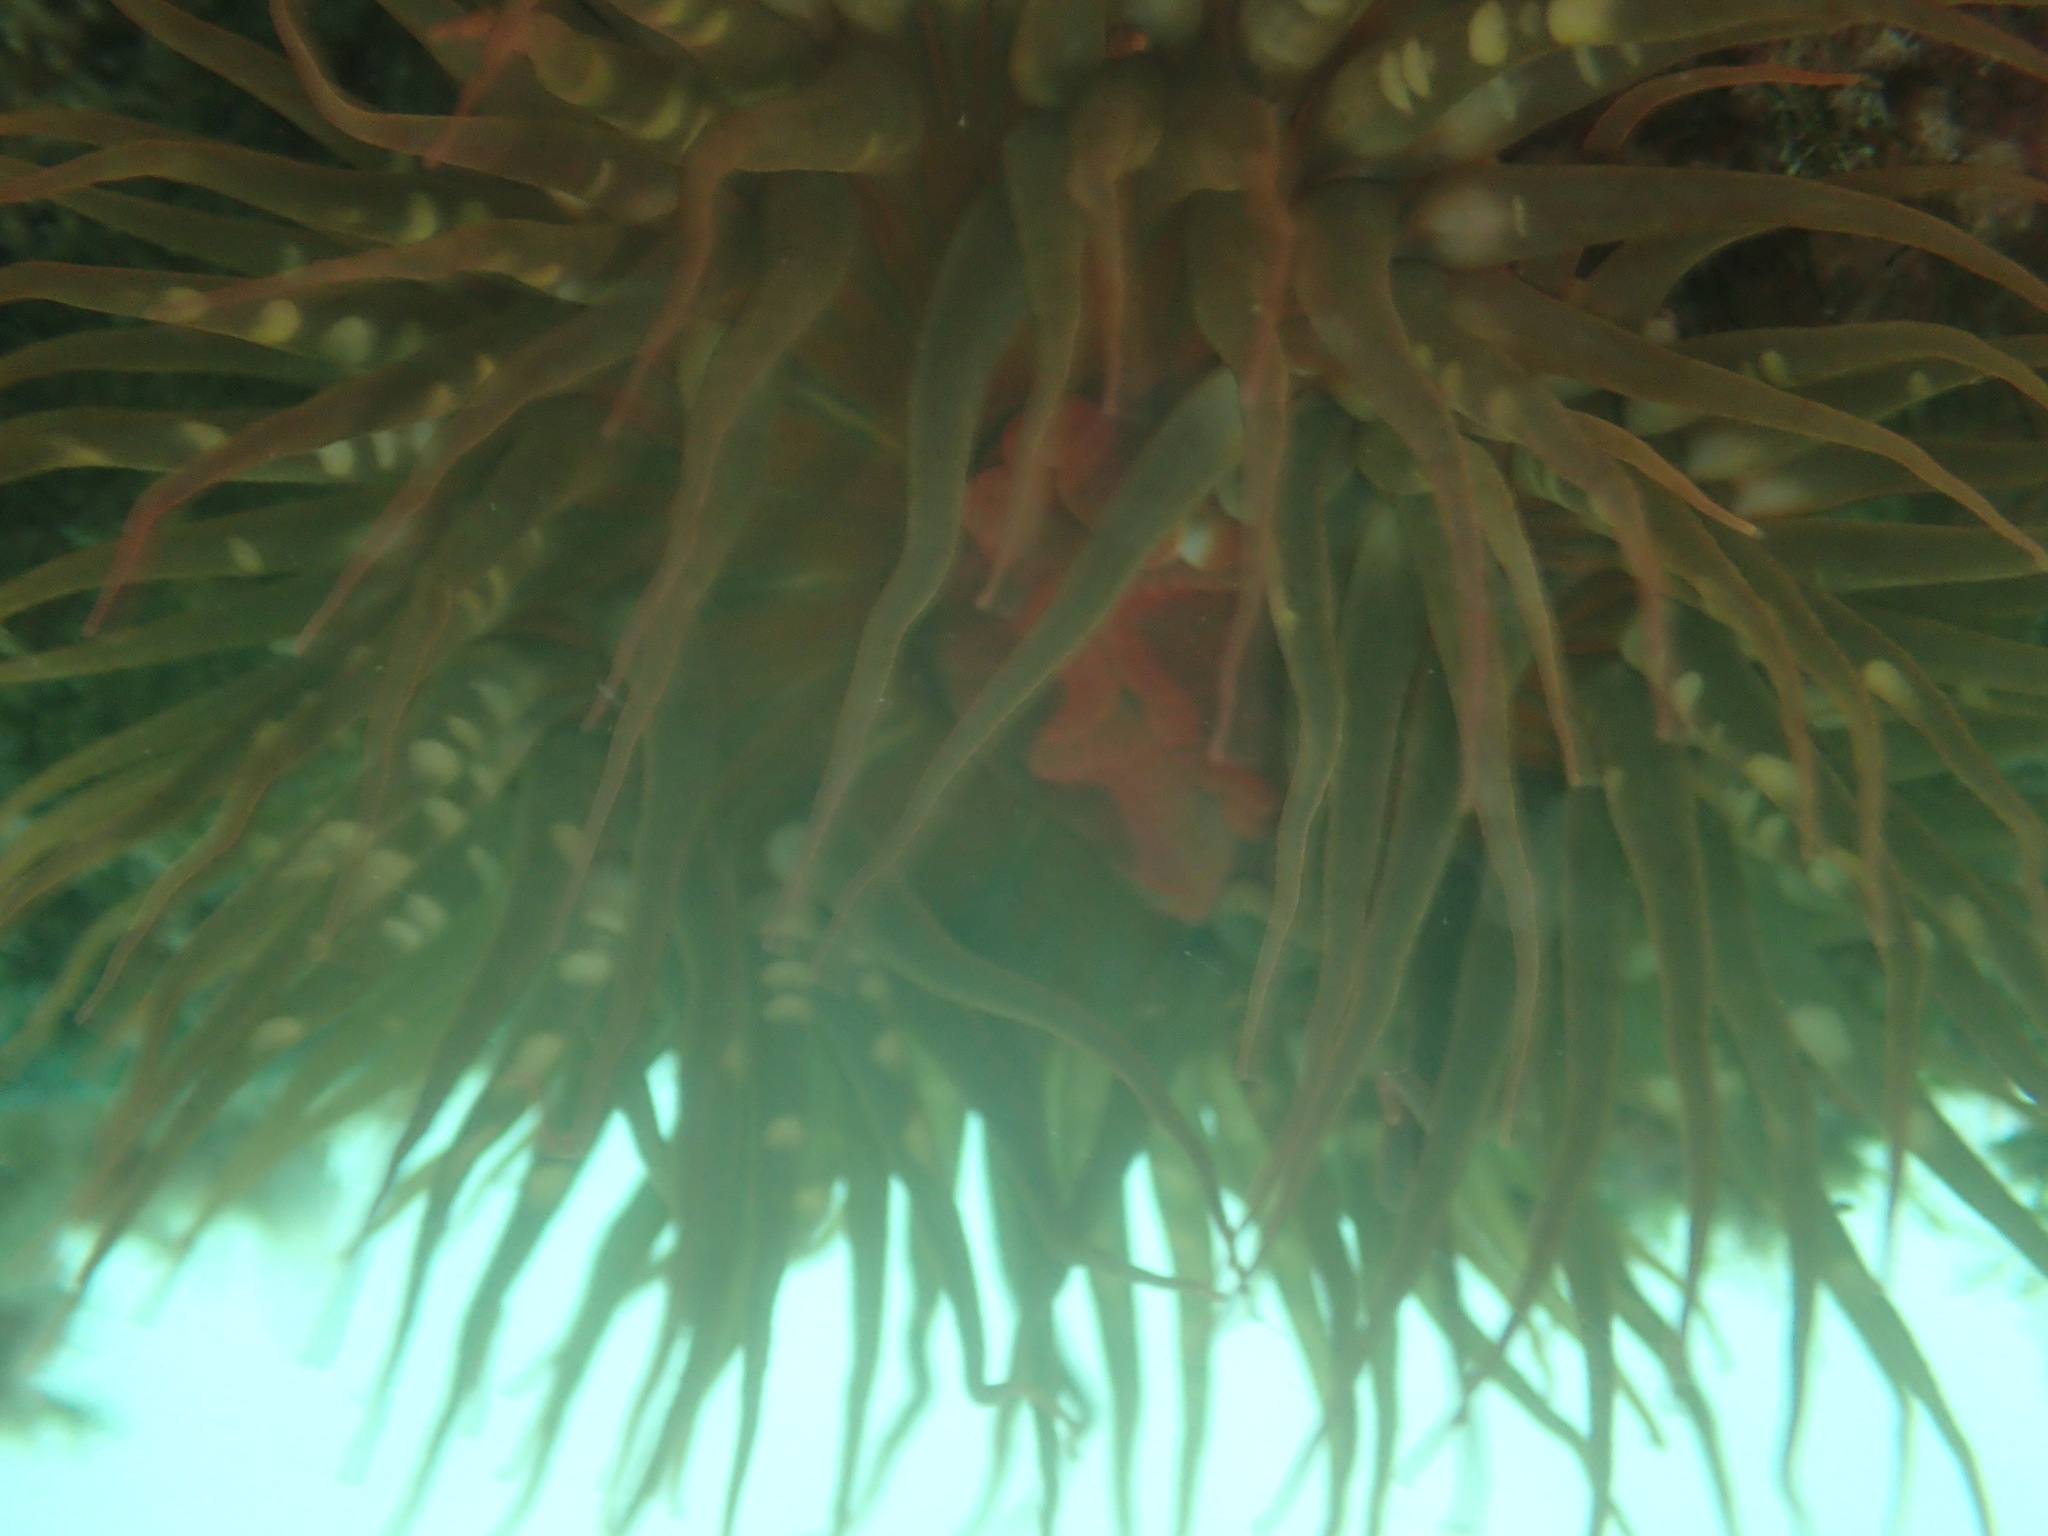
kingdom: Animalia
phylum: Cnidaria
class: Anthozoa
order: Actiniaria
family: Actiniidae
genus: Bunodosoma
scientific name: Bunodosoma californicum
